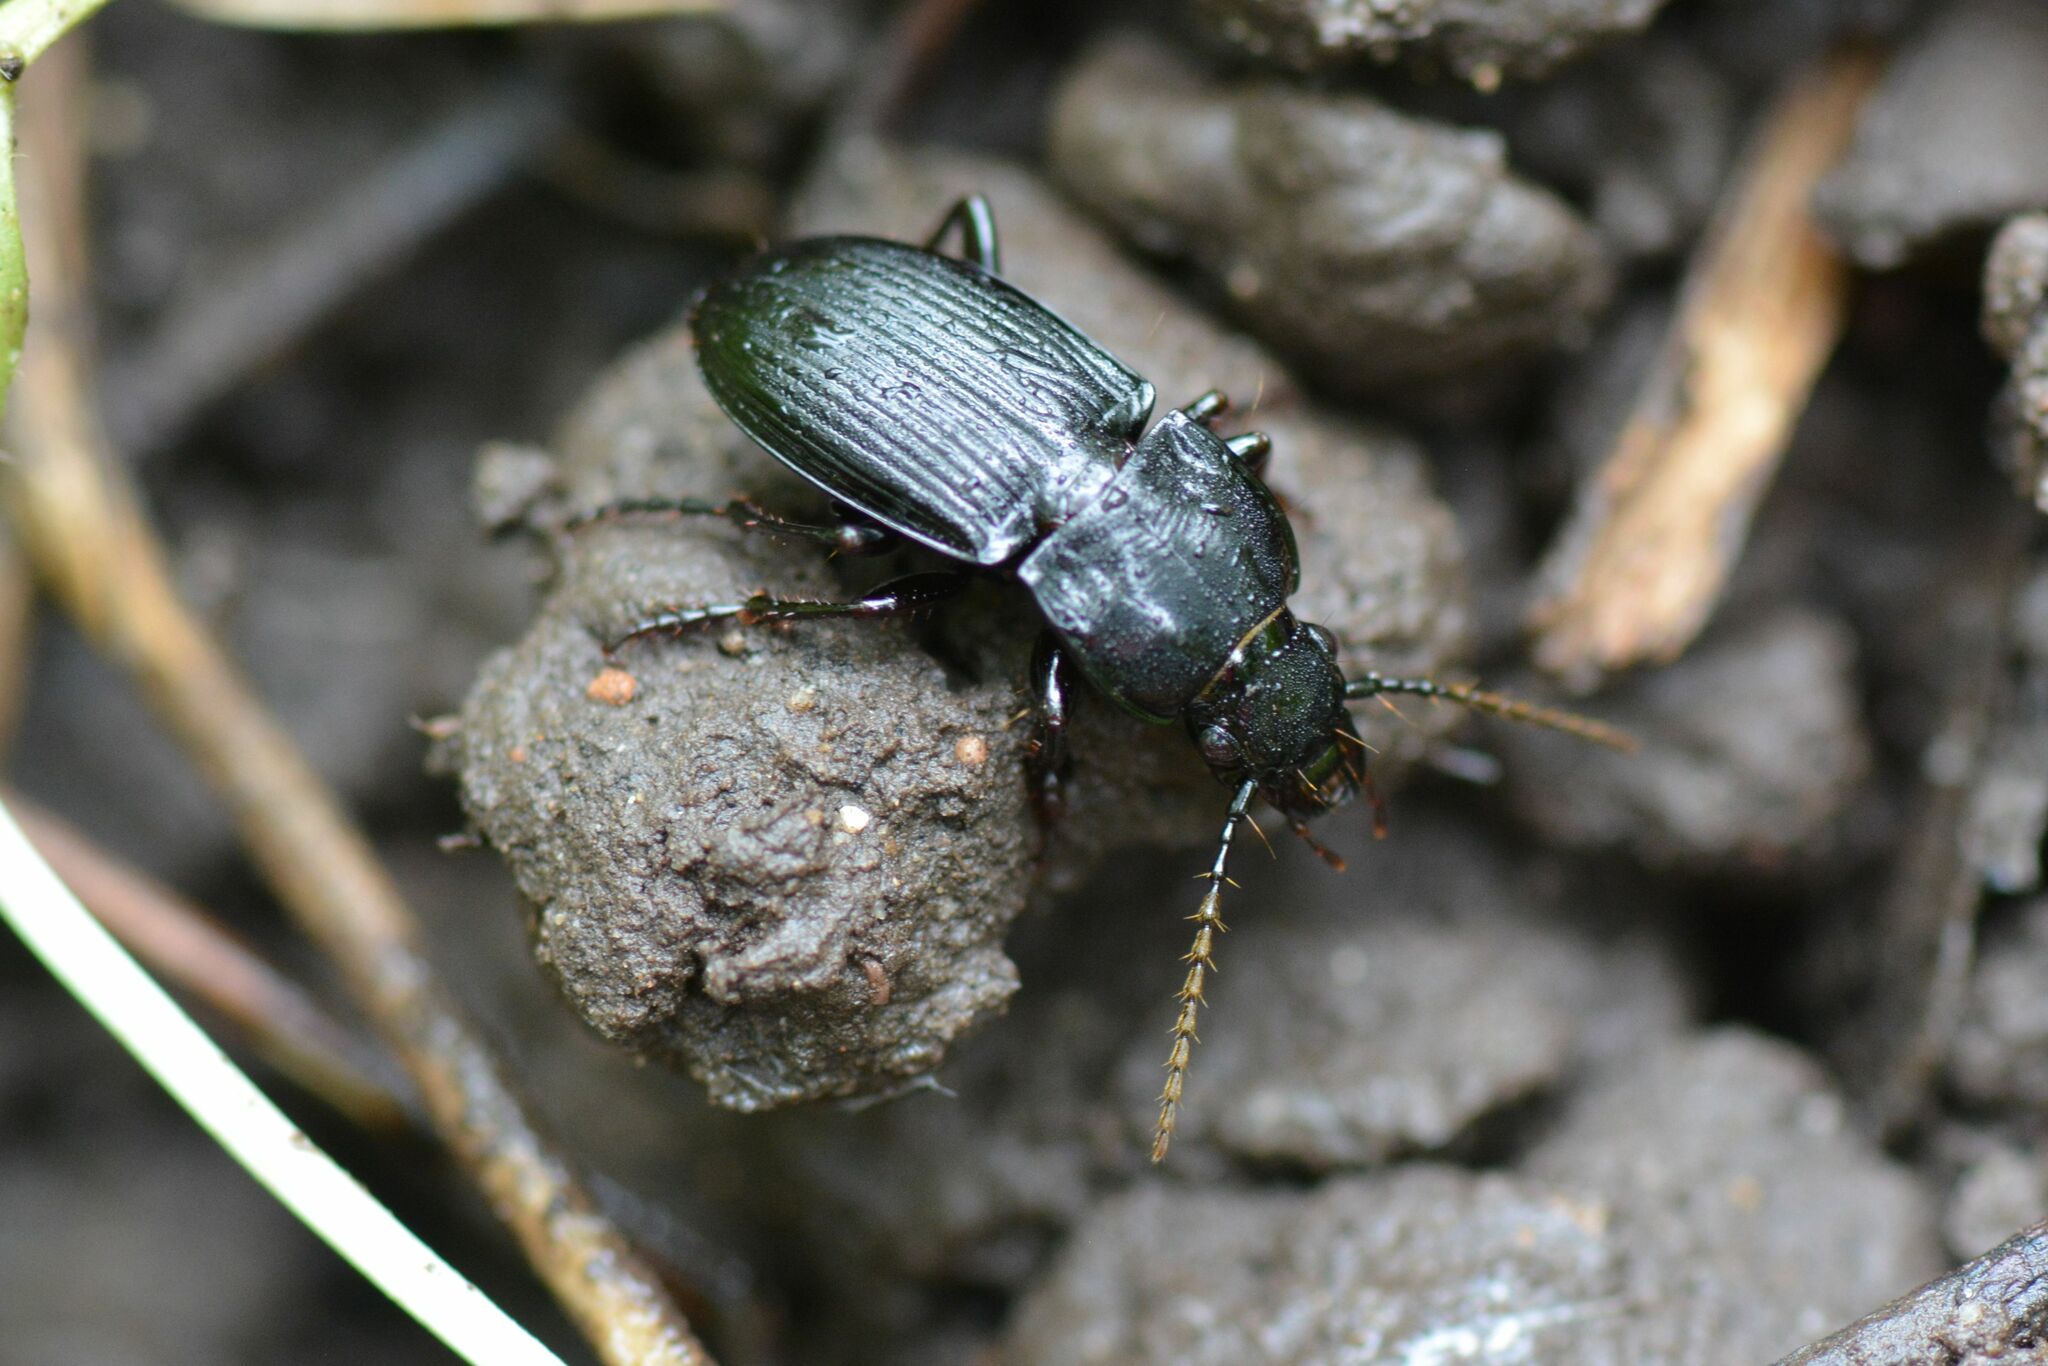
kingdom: Animalia
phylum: Arthropoda
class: Insecta
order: Coleoptera
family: Carabidae
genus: Abax
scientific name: Abax parallelus
